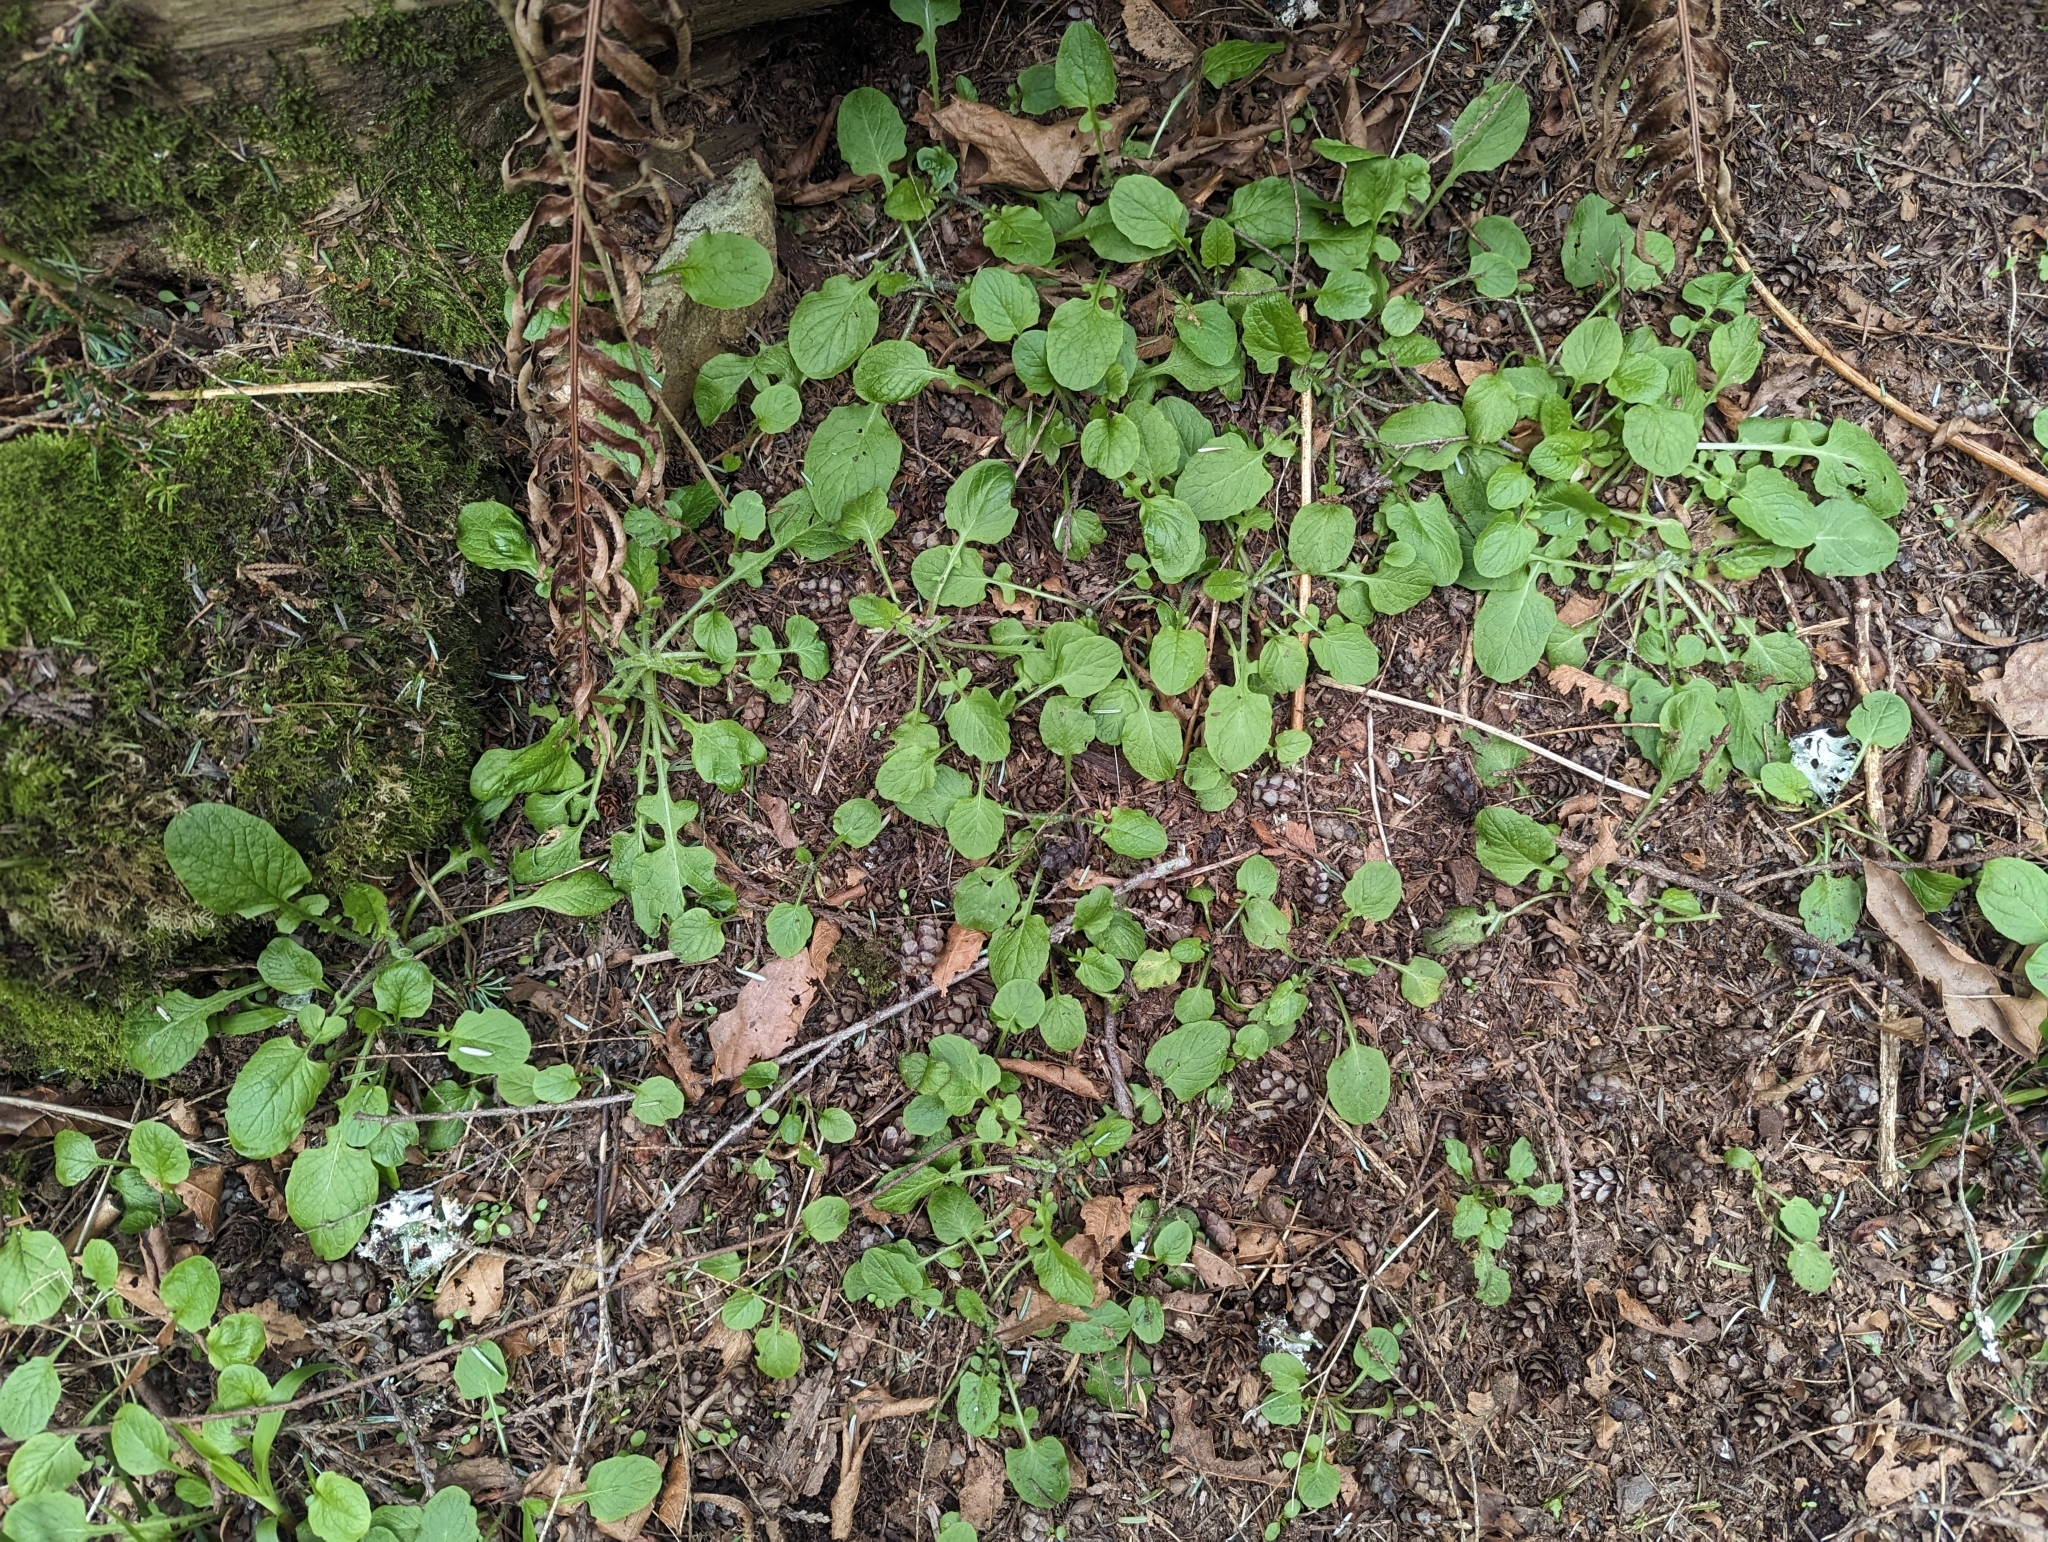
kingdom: Plantae
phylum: Tracheophyta
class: Magnoliopsida
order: Asterales
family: Asteraceae
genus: Lapsana
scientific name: Lapsana communis
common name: Nipplewort
